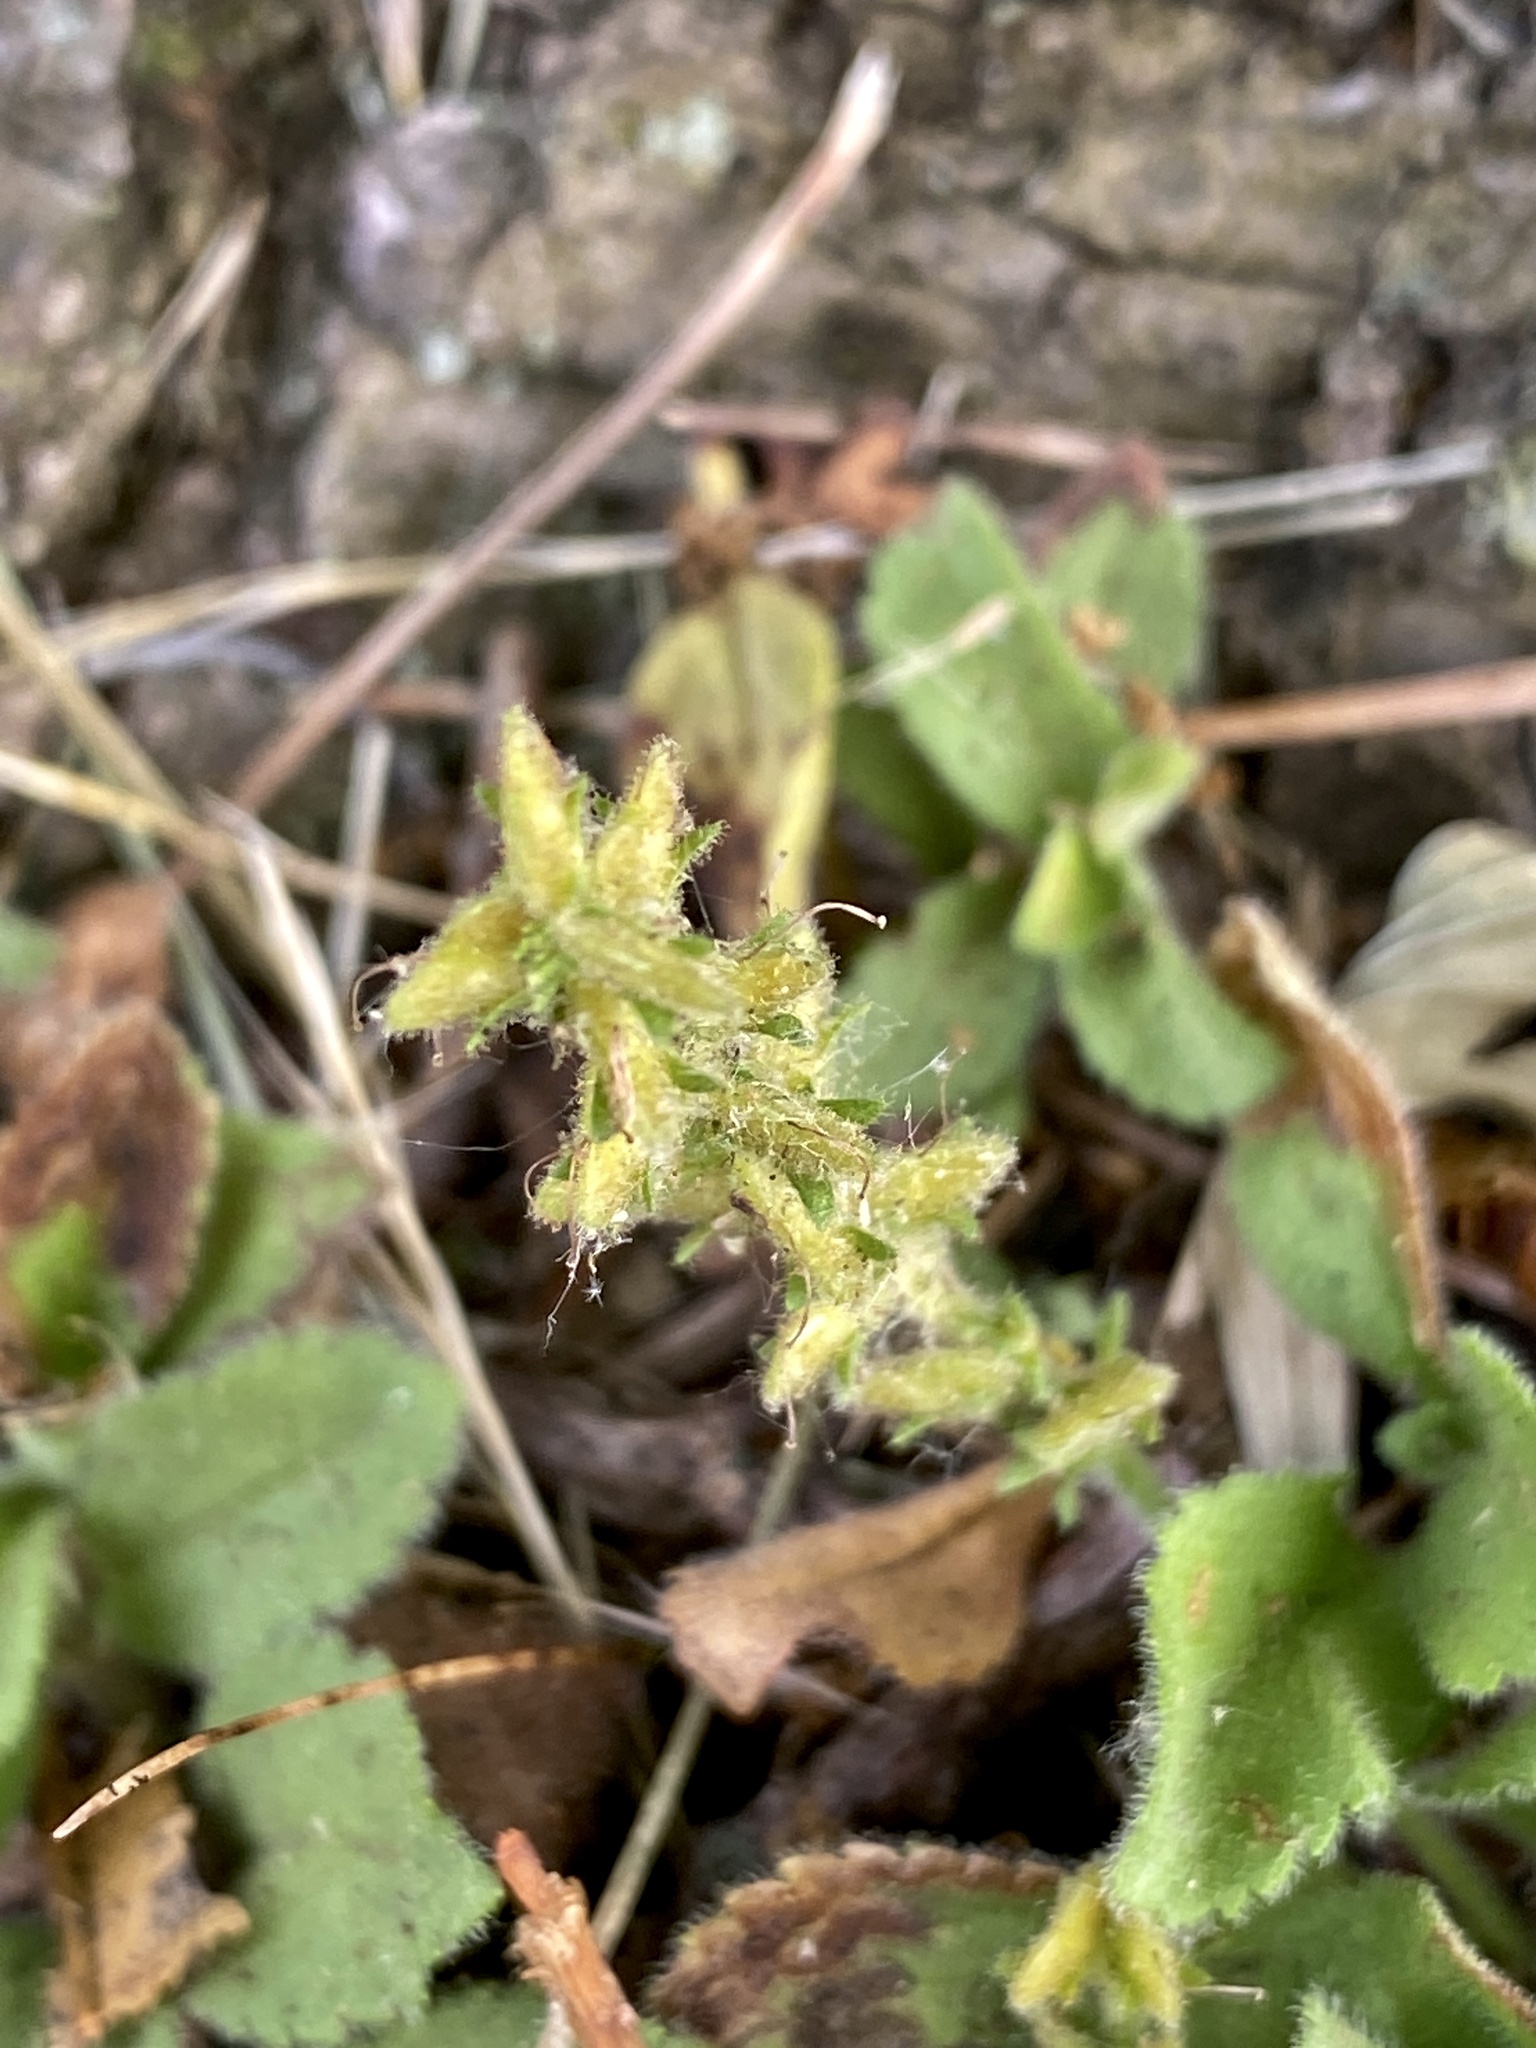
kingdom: Plantae
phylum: Tracheophyta
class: Magnoliopsida
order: Lamiales
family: Plantaginaceae
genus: Veronica
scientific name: Veronica officinalis
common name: Common speedwell
